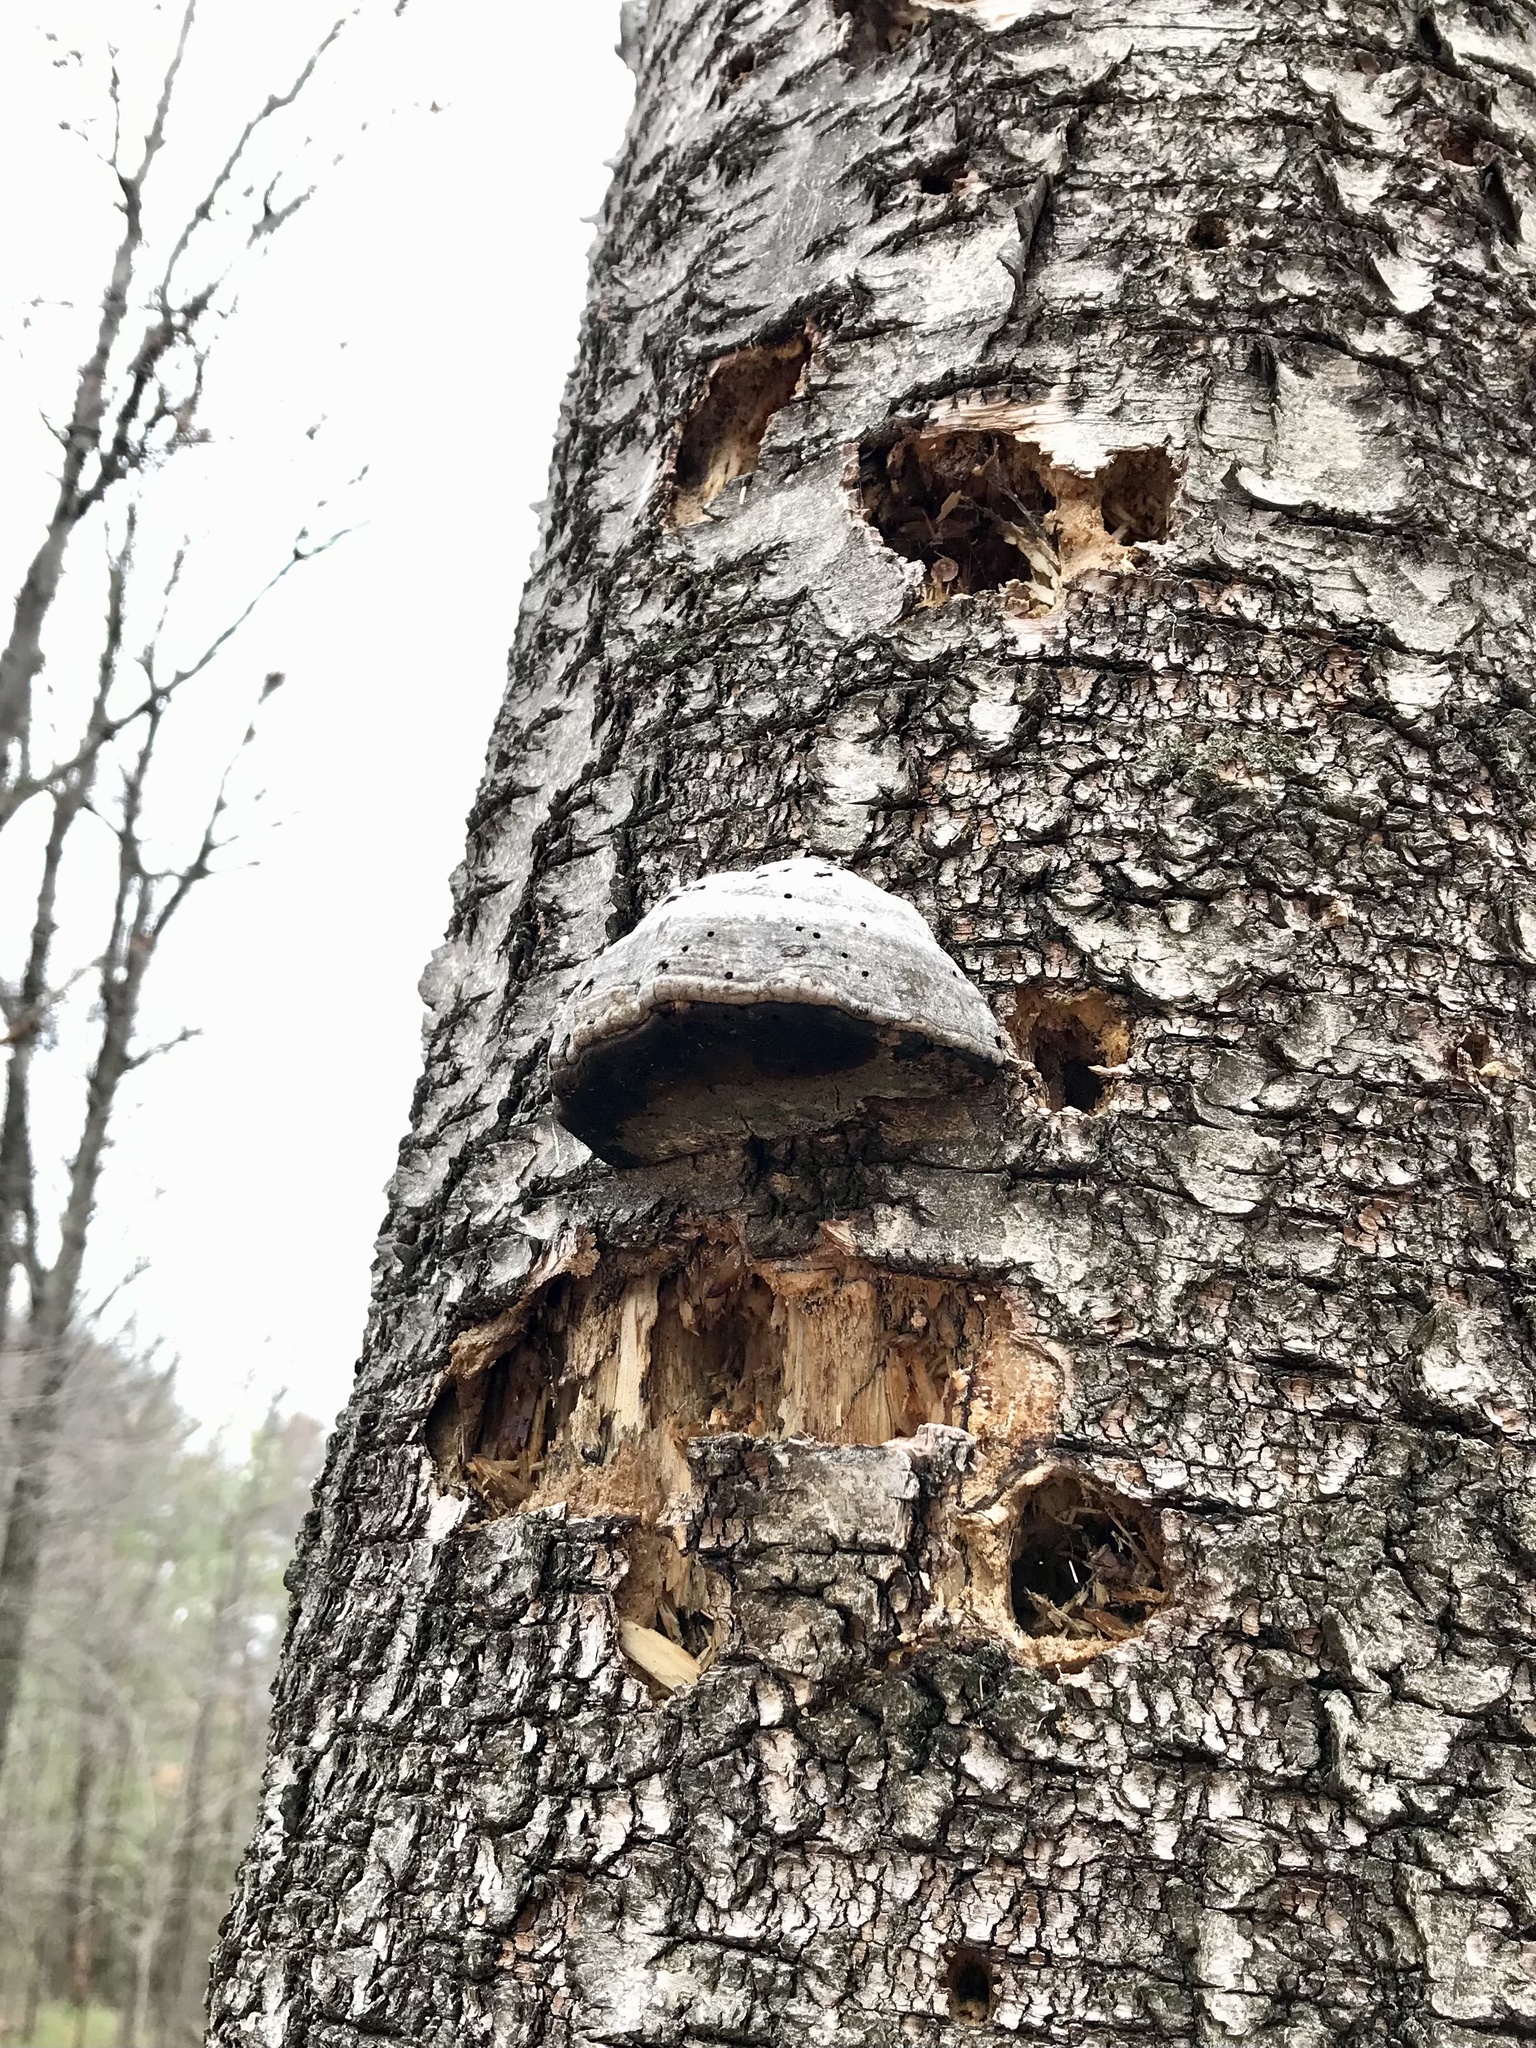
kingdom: Fungi
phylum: Basidiomycota
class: Agaricomycetes
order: Polyporales
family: Polyporaceae
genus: Fomes
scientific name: Fomes fomentarius
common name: Hoof fungus
